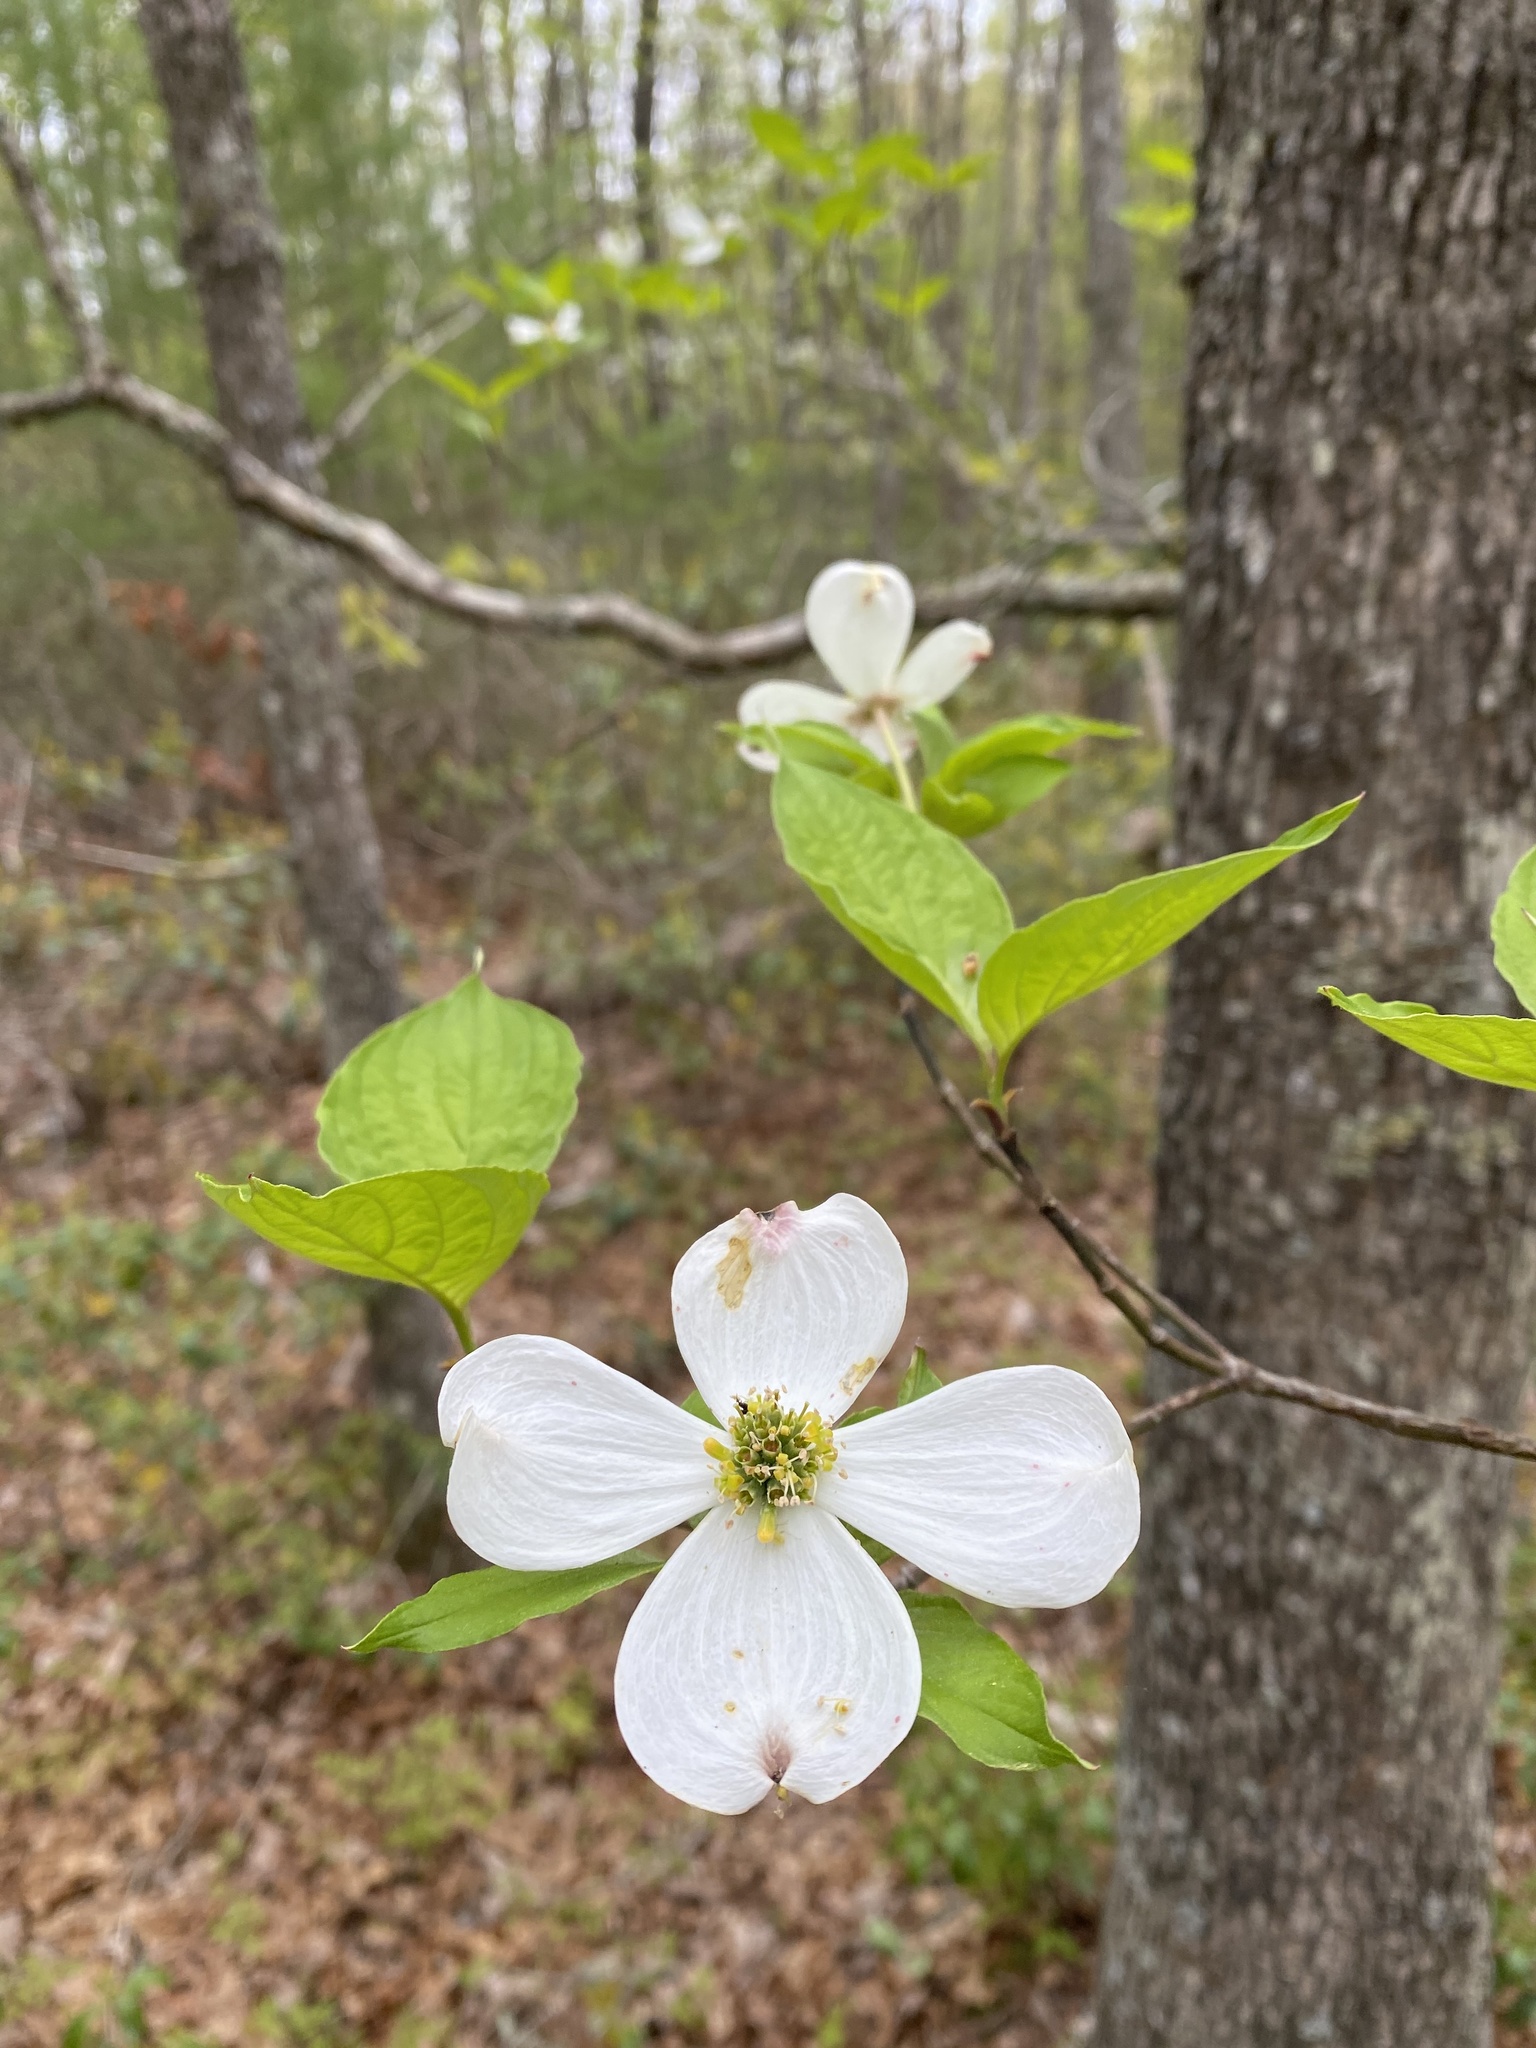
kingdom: Plantae
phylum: Tracheophyta
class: Magnoliopsida
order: Cornales
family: Cornaceae
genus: Cornus
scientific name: Cornus florida
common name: Flowering dogwood
